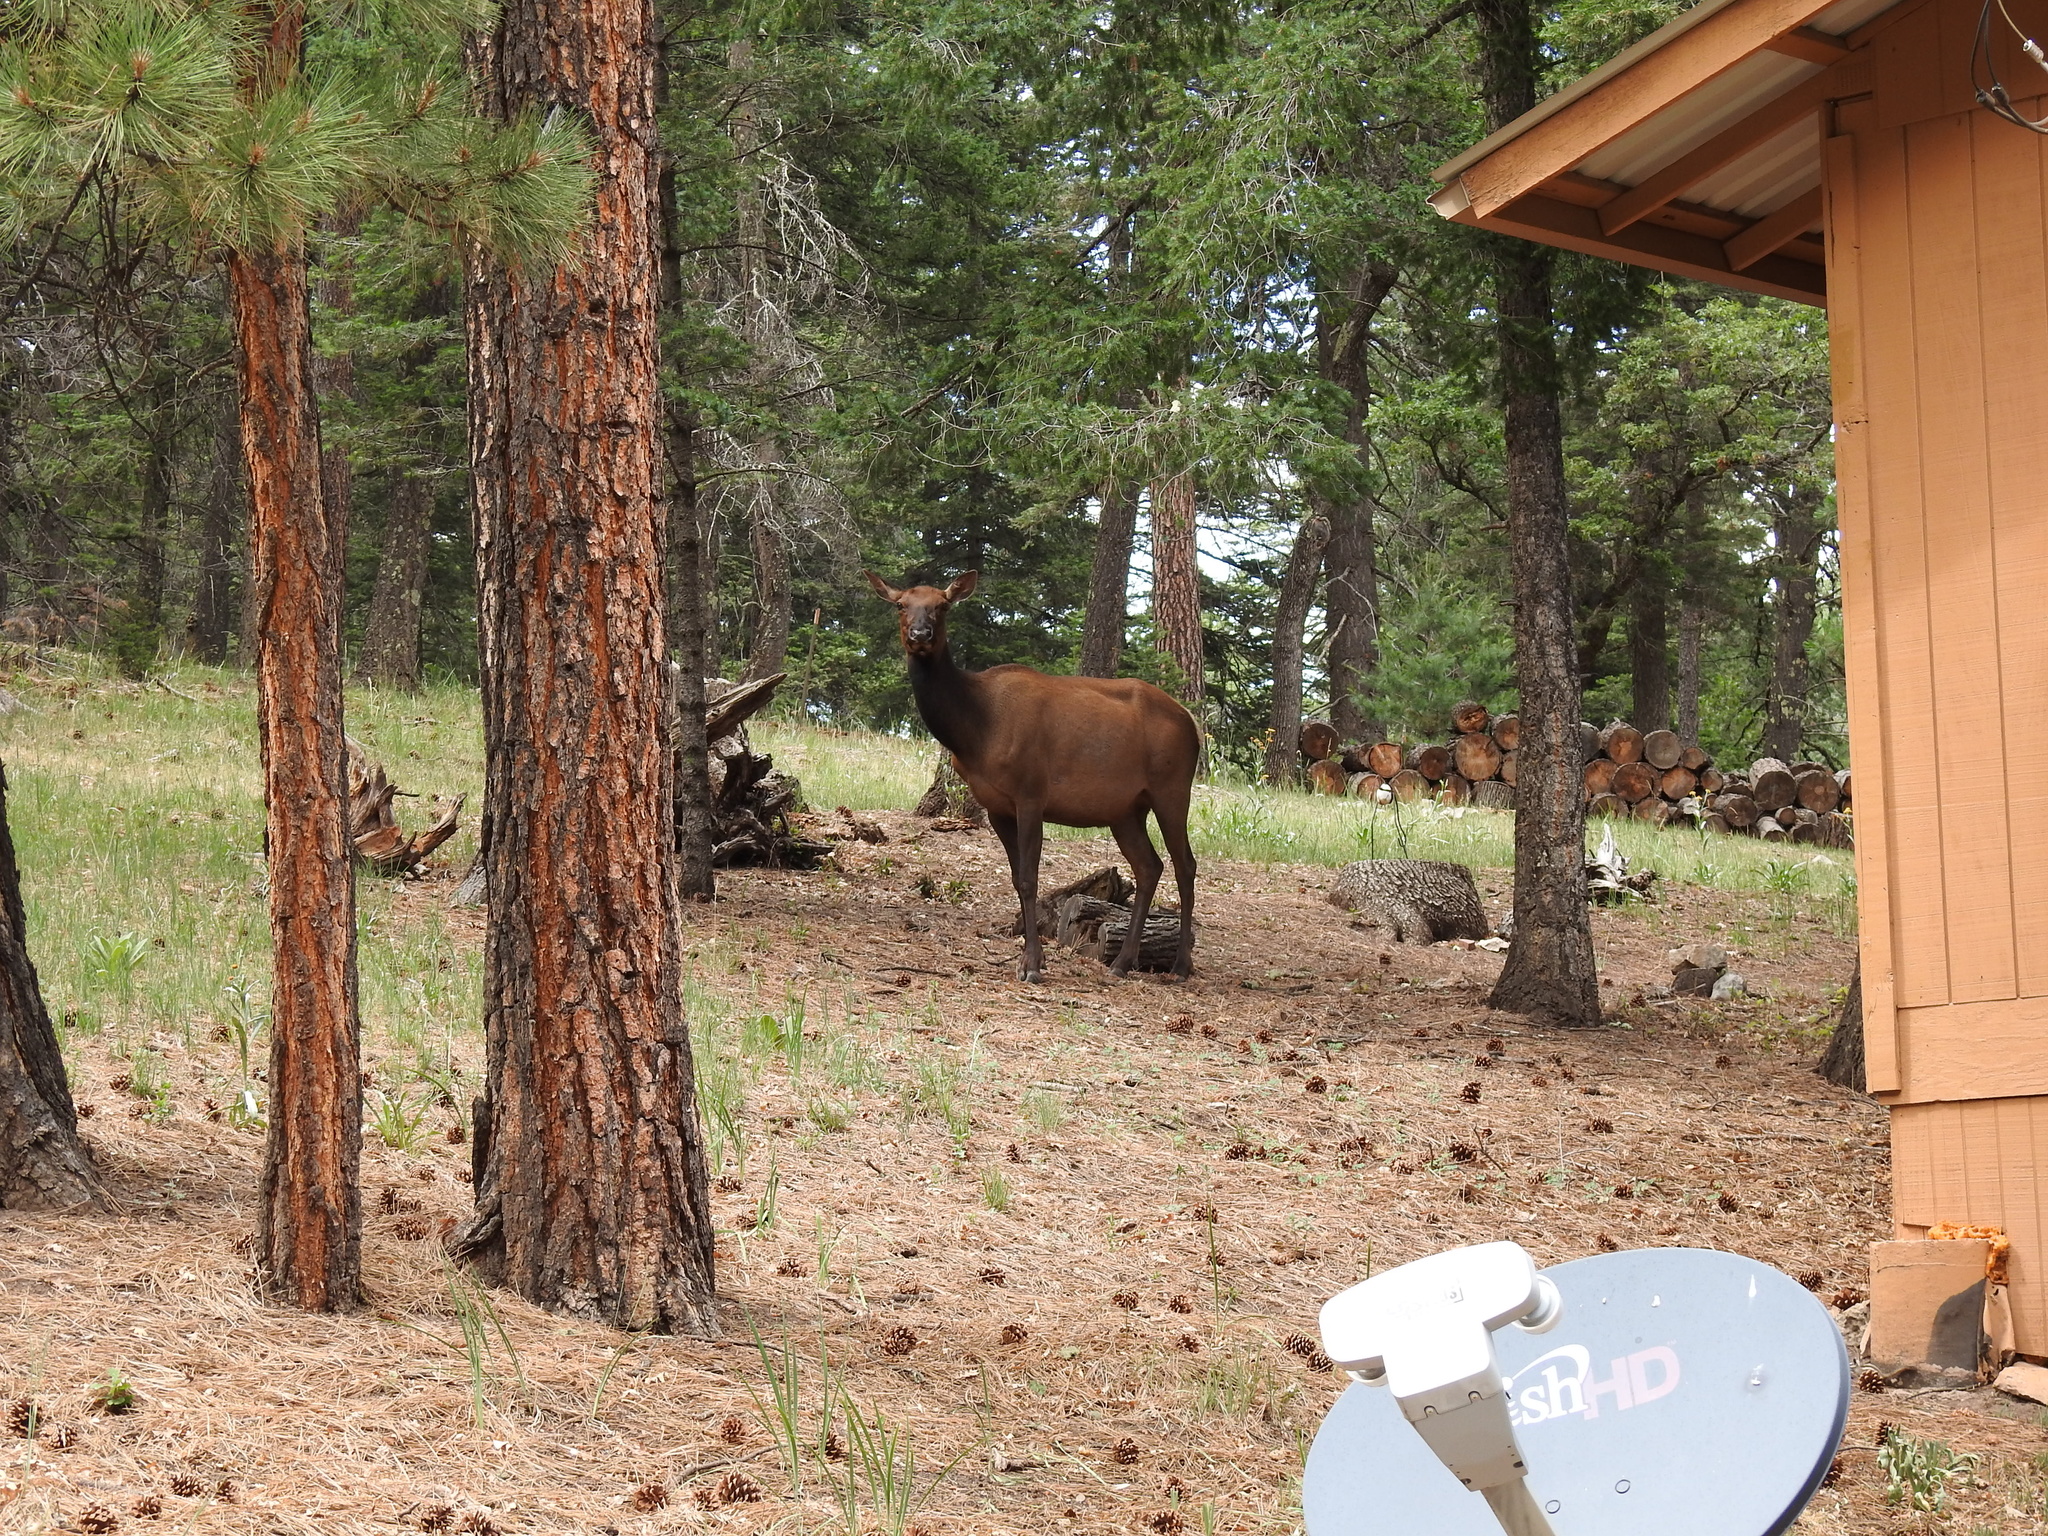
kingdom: Animalia
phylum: Chordata
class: Mammalia
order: Artiodactyla
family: Cervidae
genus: Cervus
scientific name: Cervus elaphus
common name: Red deer
